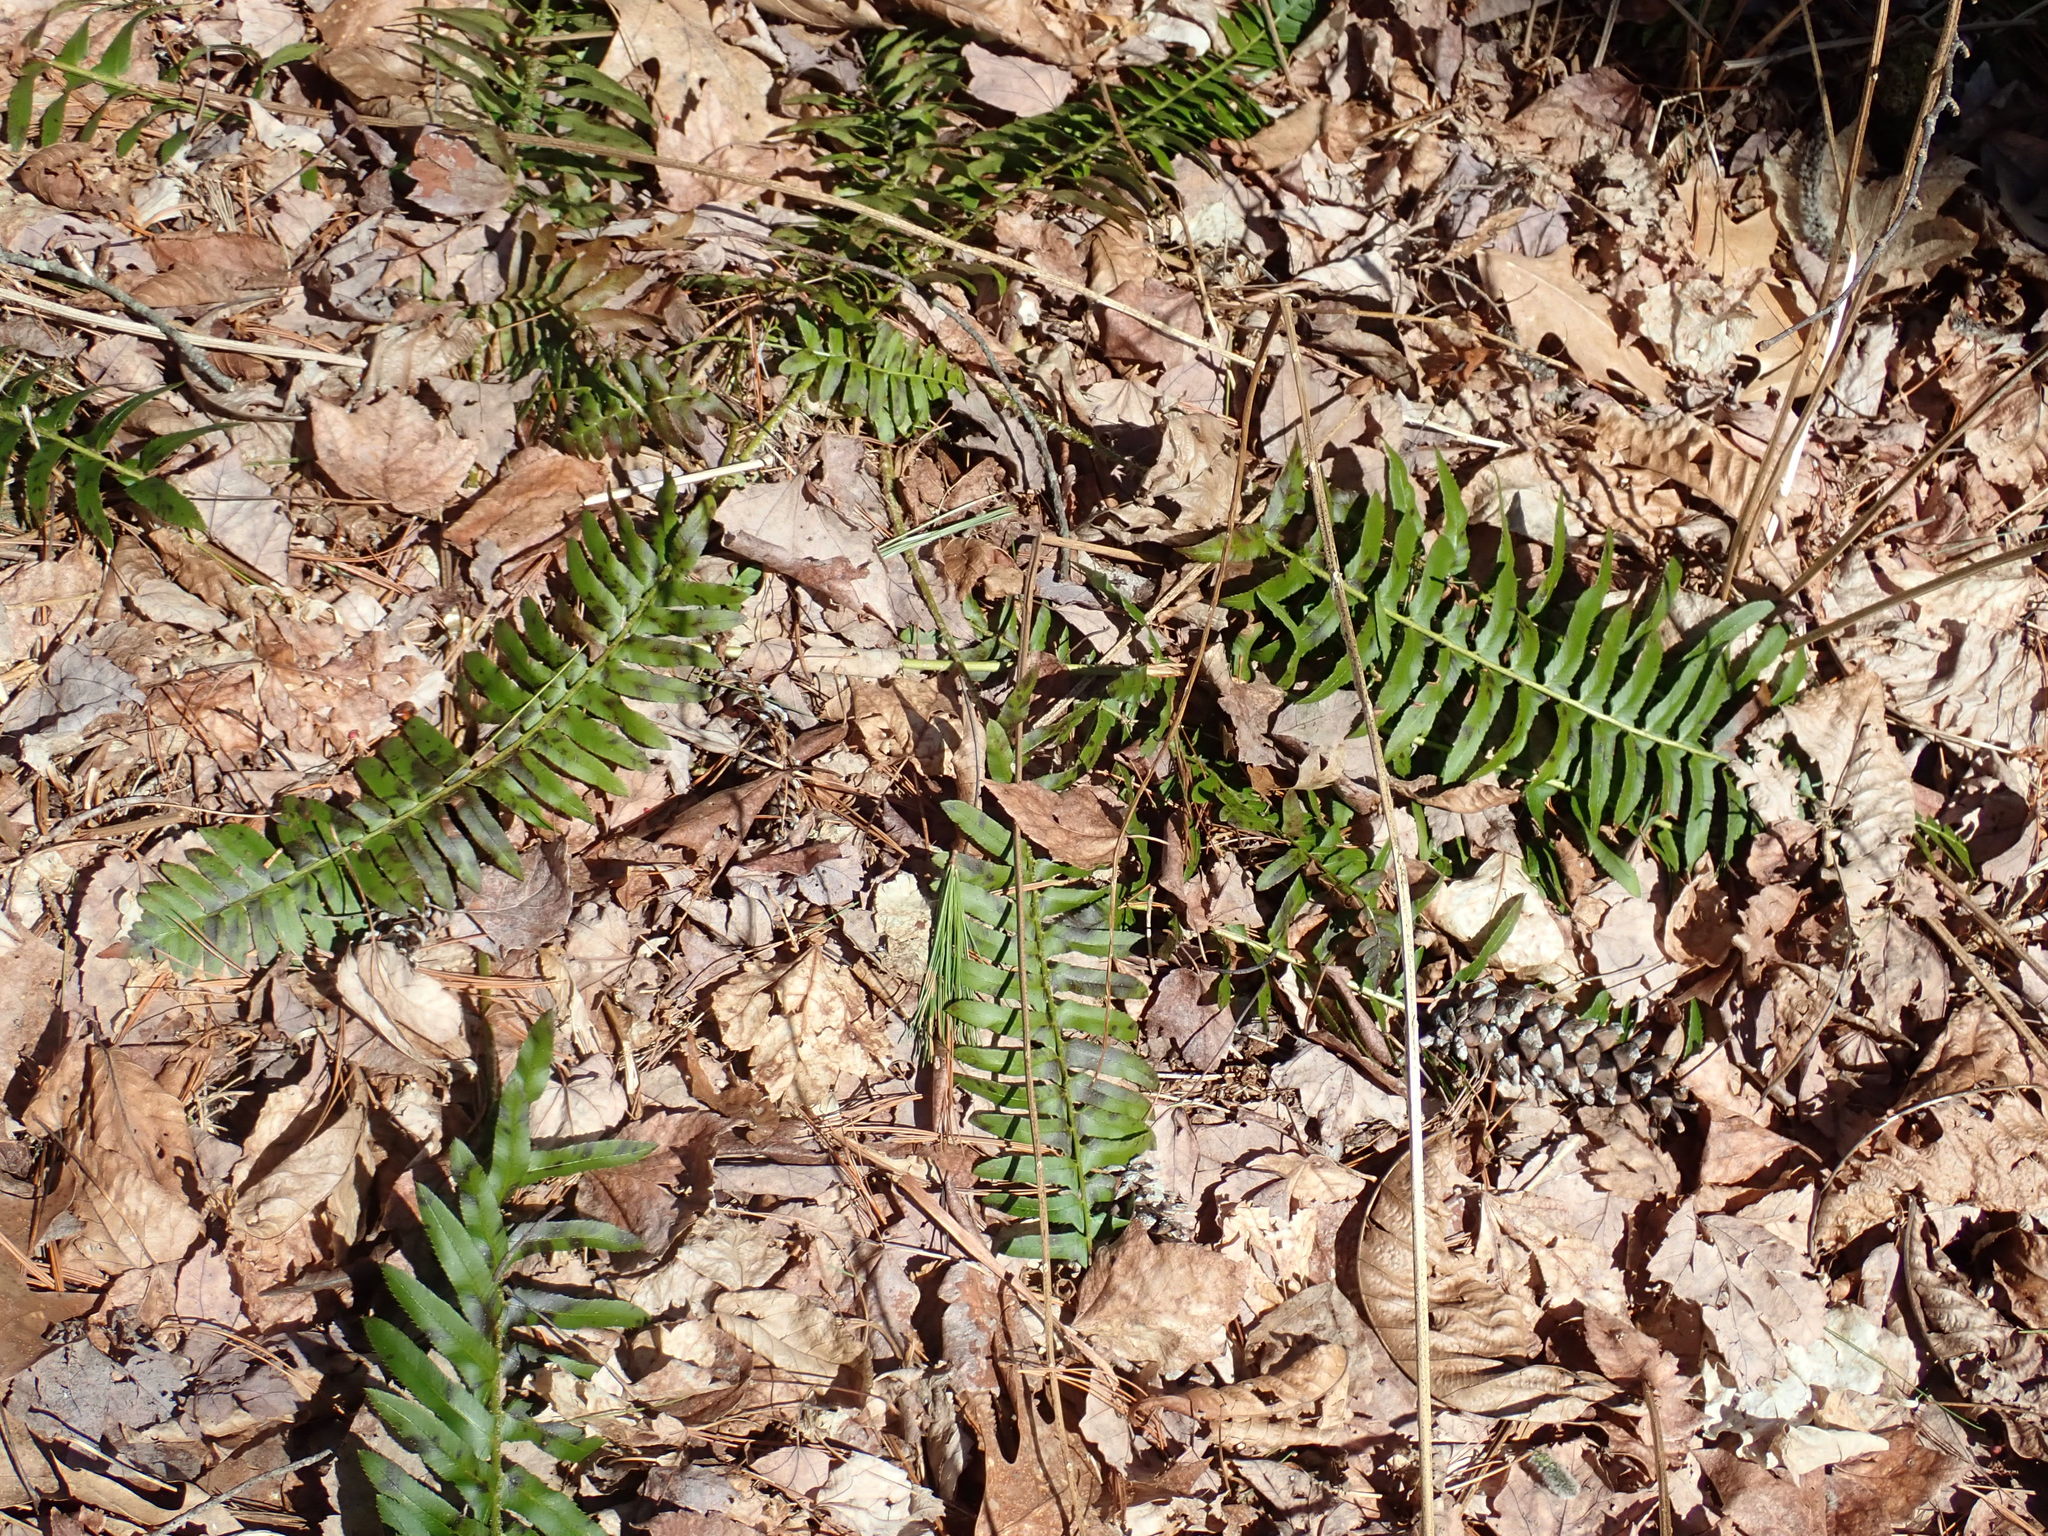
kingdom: Plantae
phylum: Tracheophyta
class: Polypodiopsida
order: Polypodiales
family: Dryopteridaceae
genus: Polystichum
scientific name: Polystichum acrostichoides
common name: Christmas fern
